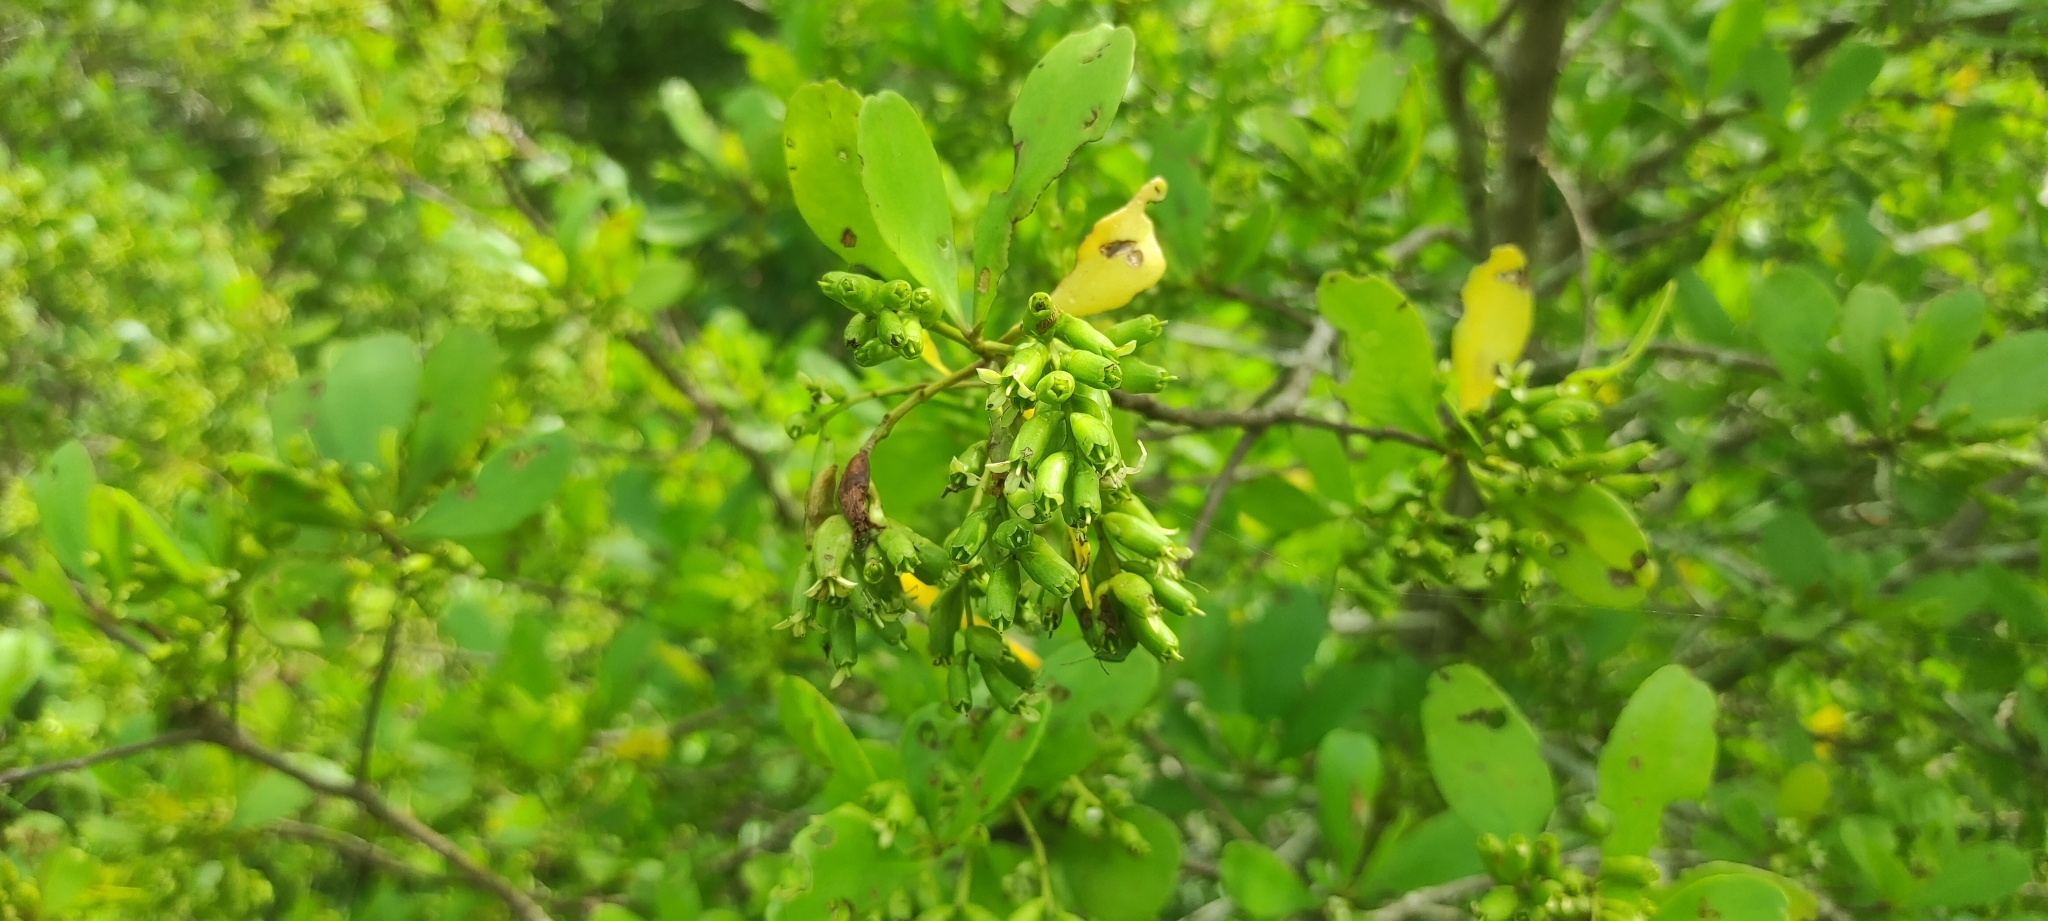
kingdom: Plantae
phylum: Tracheophyta
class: Magnoliopsida
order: Myrtales
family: Combretaceae
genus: Lumnitzera
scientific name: Lumnitzera racemosa
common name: White-flowered black mangrove
